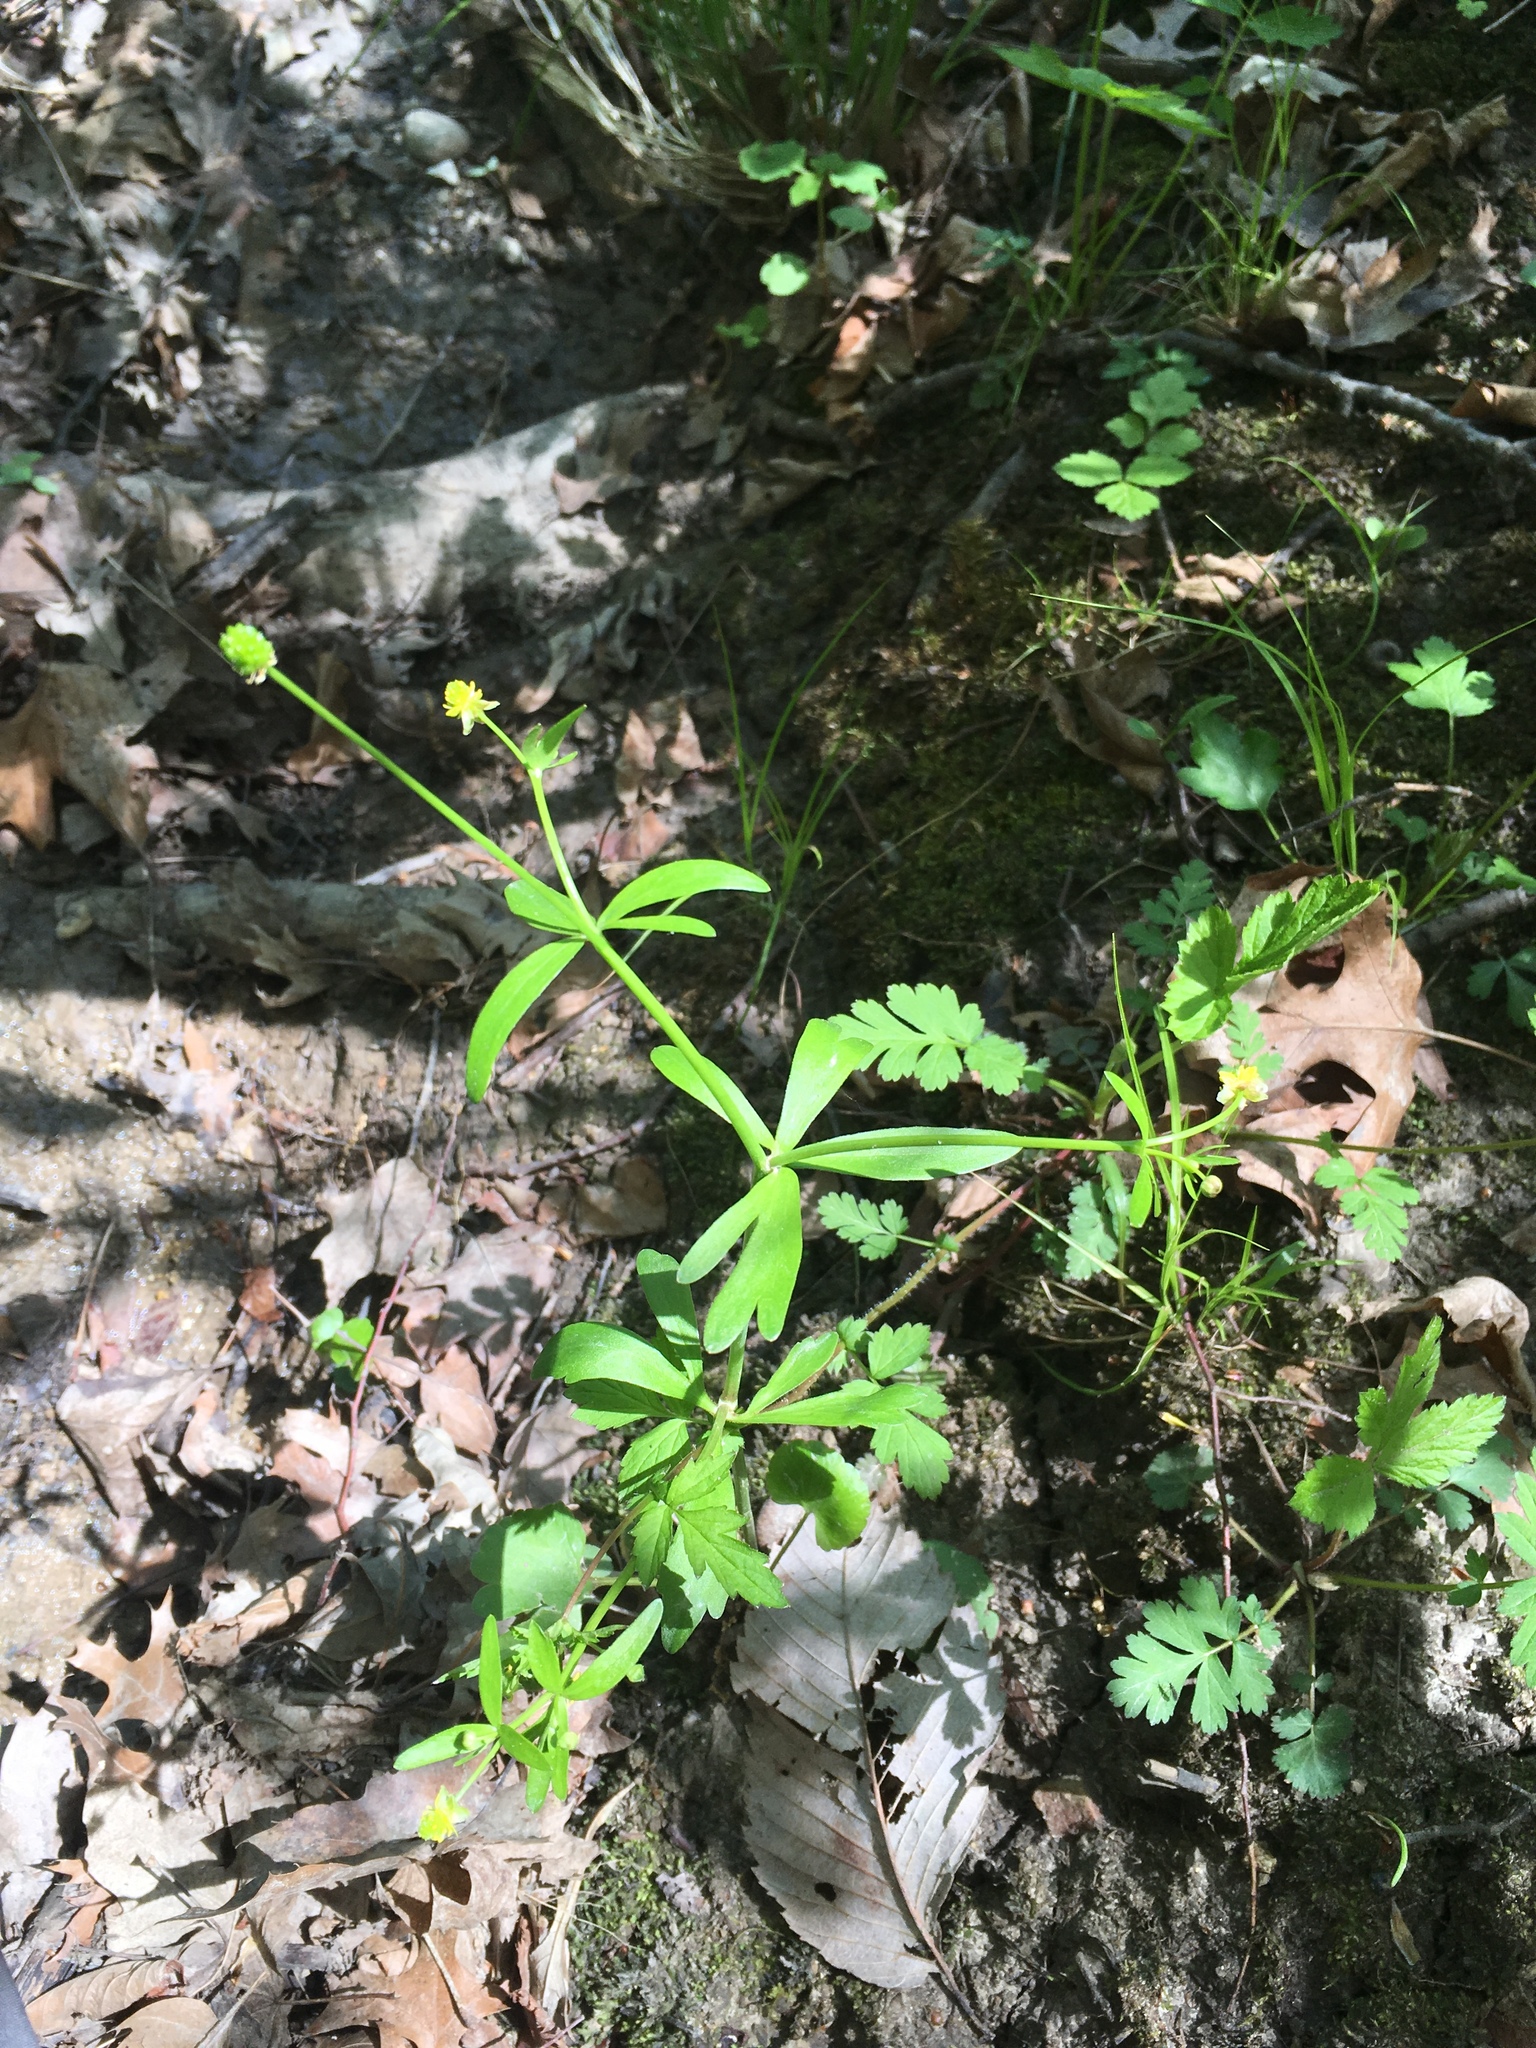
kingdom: Plantae
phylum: Tracheophyta
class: Magnoliopsida
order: Ranunculales
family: Ranunculaceae
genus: Ranunculus
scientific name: Ranunculus abortivus
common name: Early wood buttercup
